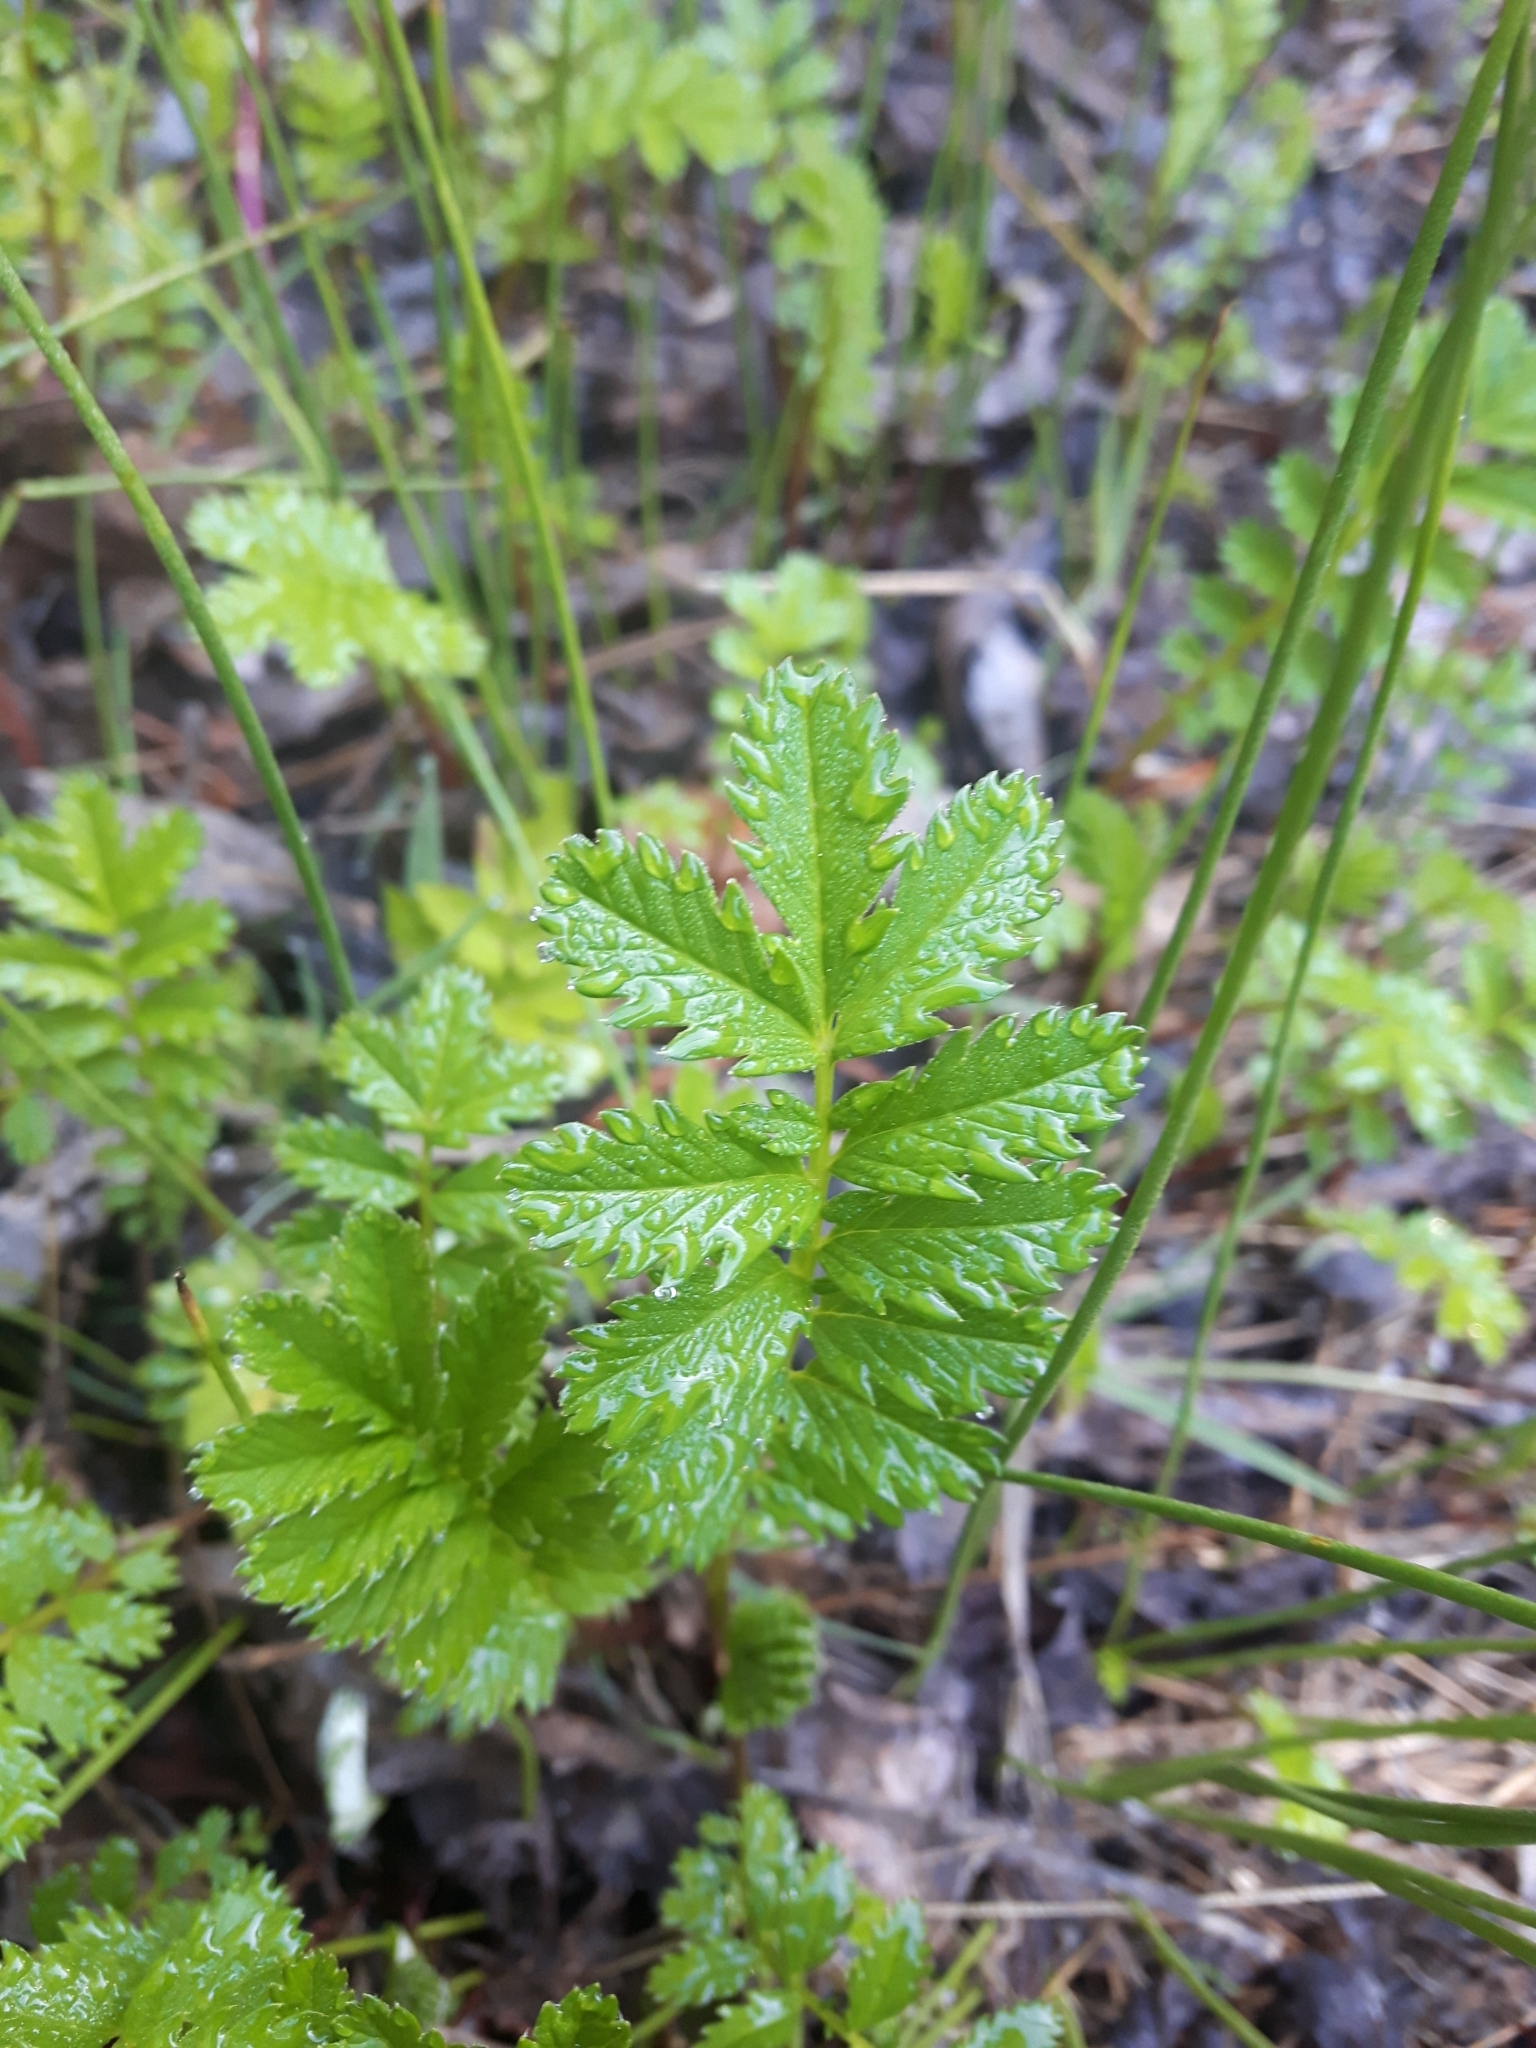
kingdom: Plantae
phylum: Tracheophyta
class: Magnoliopsida
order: Rosales
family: Rosaceae
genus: Argentina
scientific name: Argentina anserina
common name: Common silverweed
